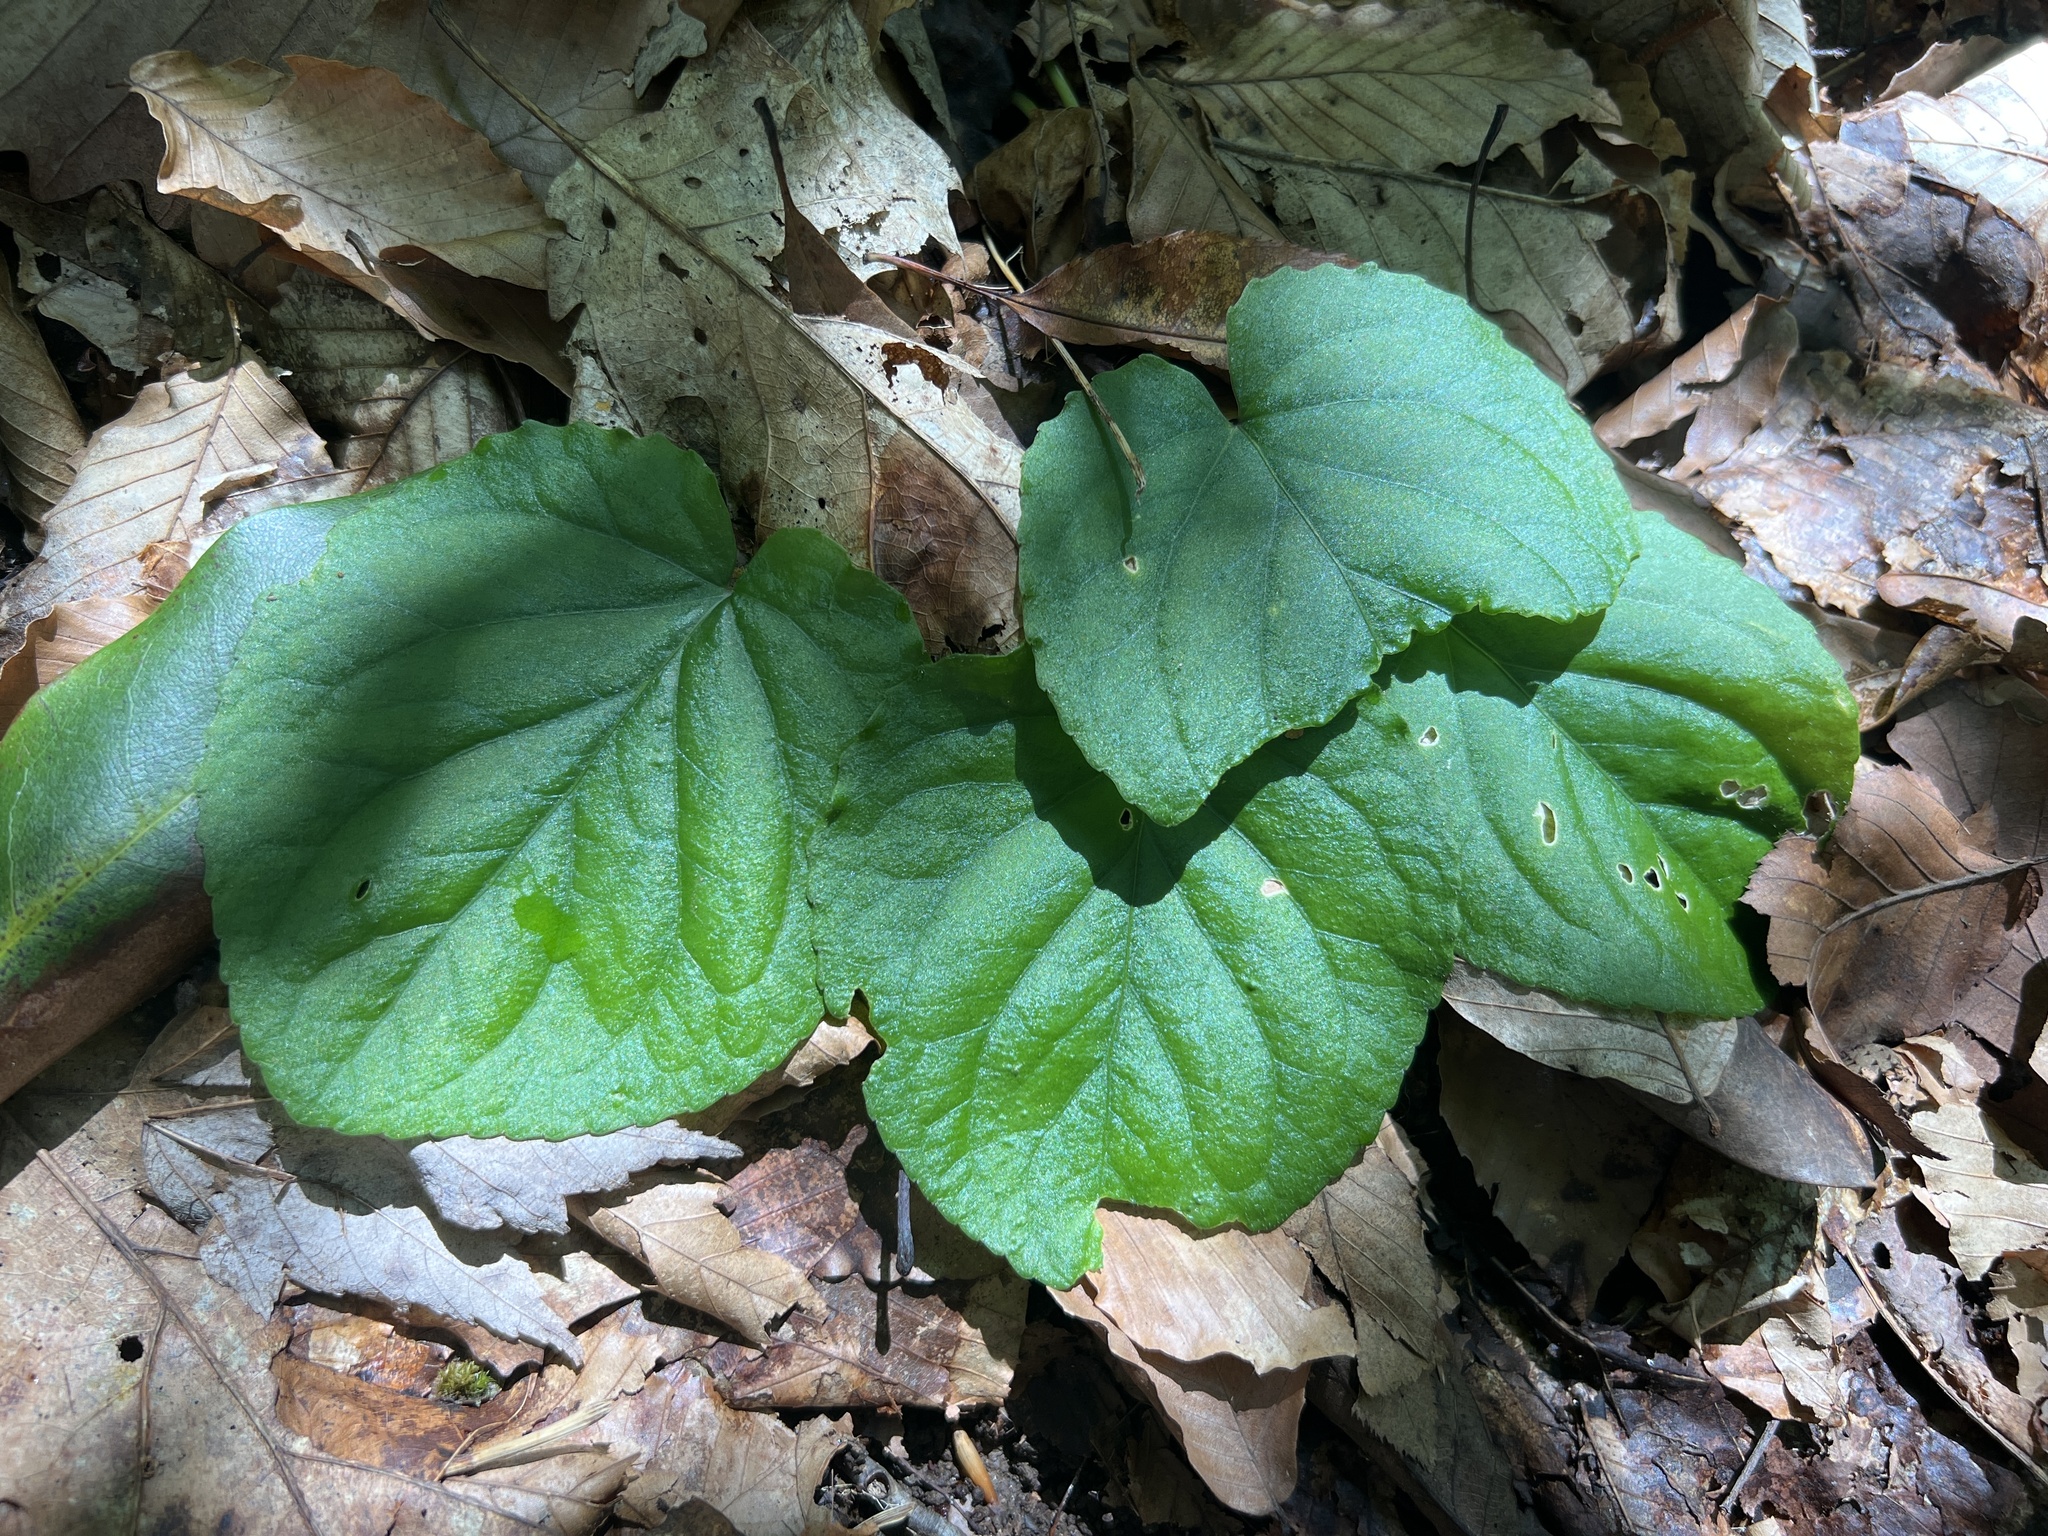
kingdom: Plantae
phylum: Tracheophyta
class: Magnoliopsida
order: Malpighiales
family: Violaceae
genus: Viola
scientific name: Viola rotundifolia
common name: Early yellow violet
